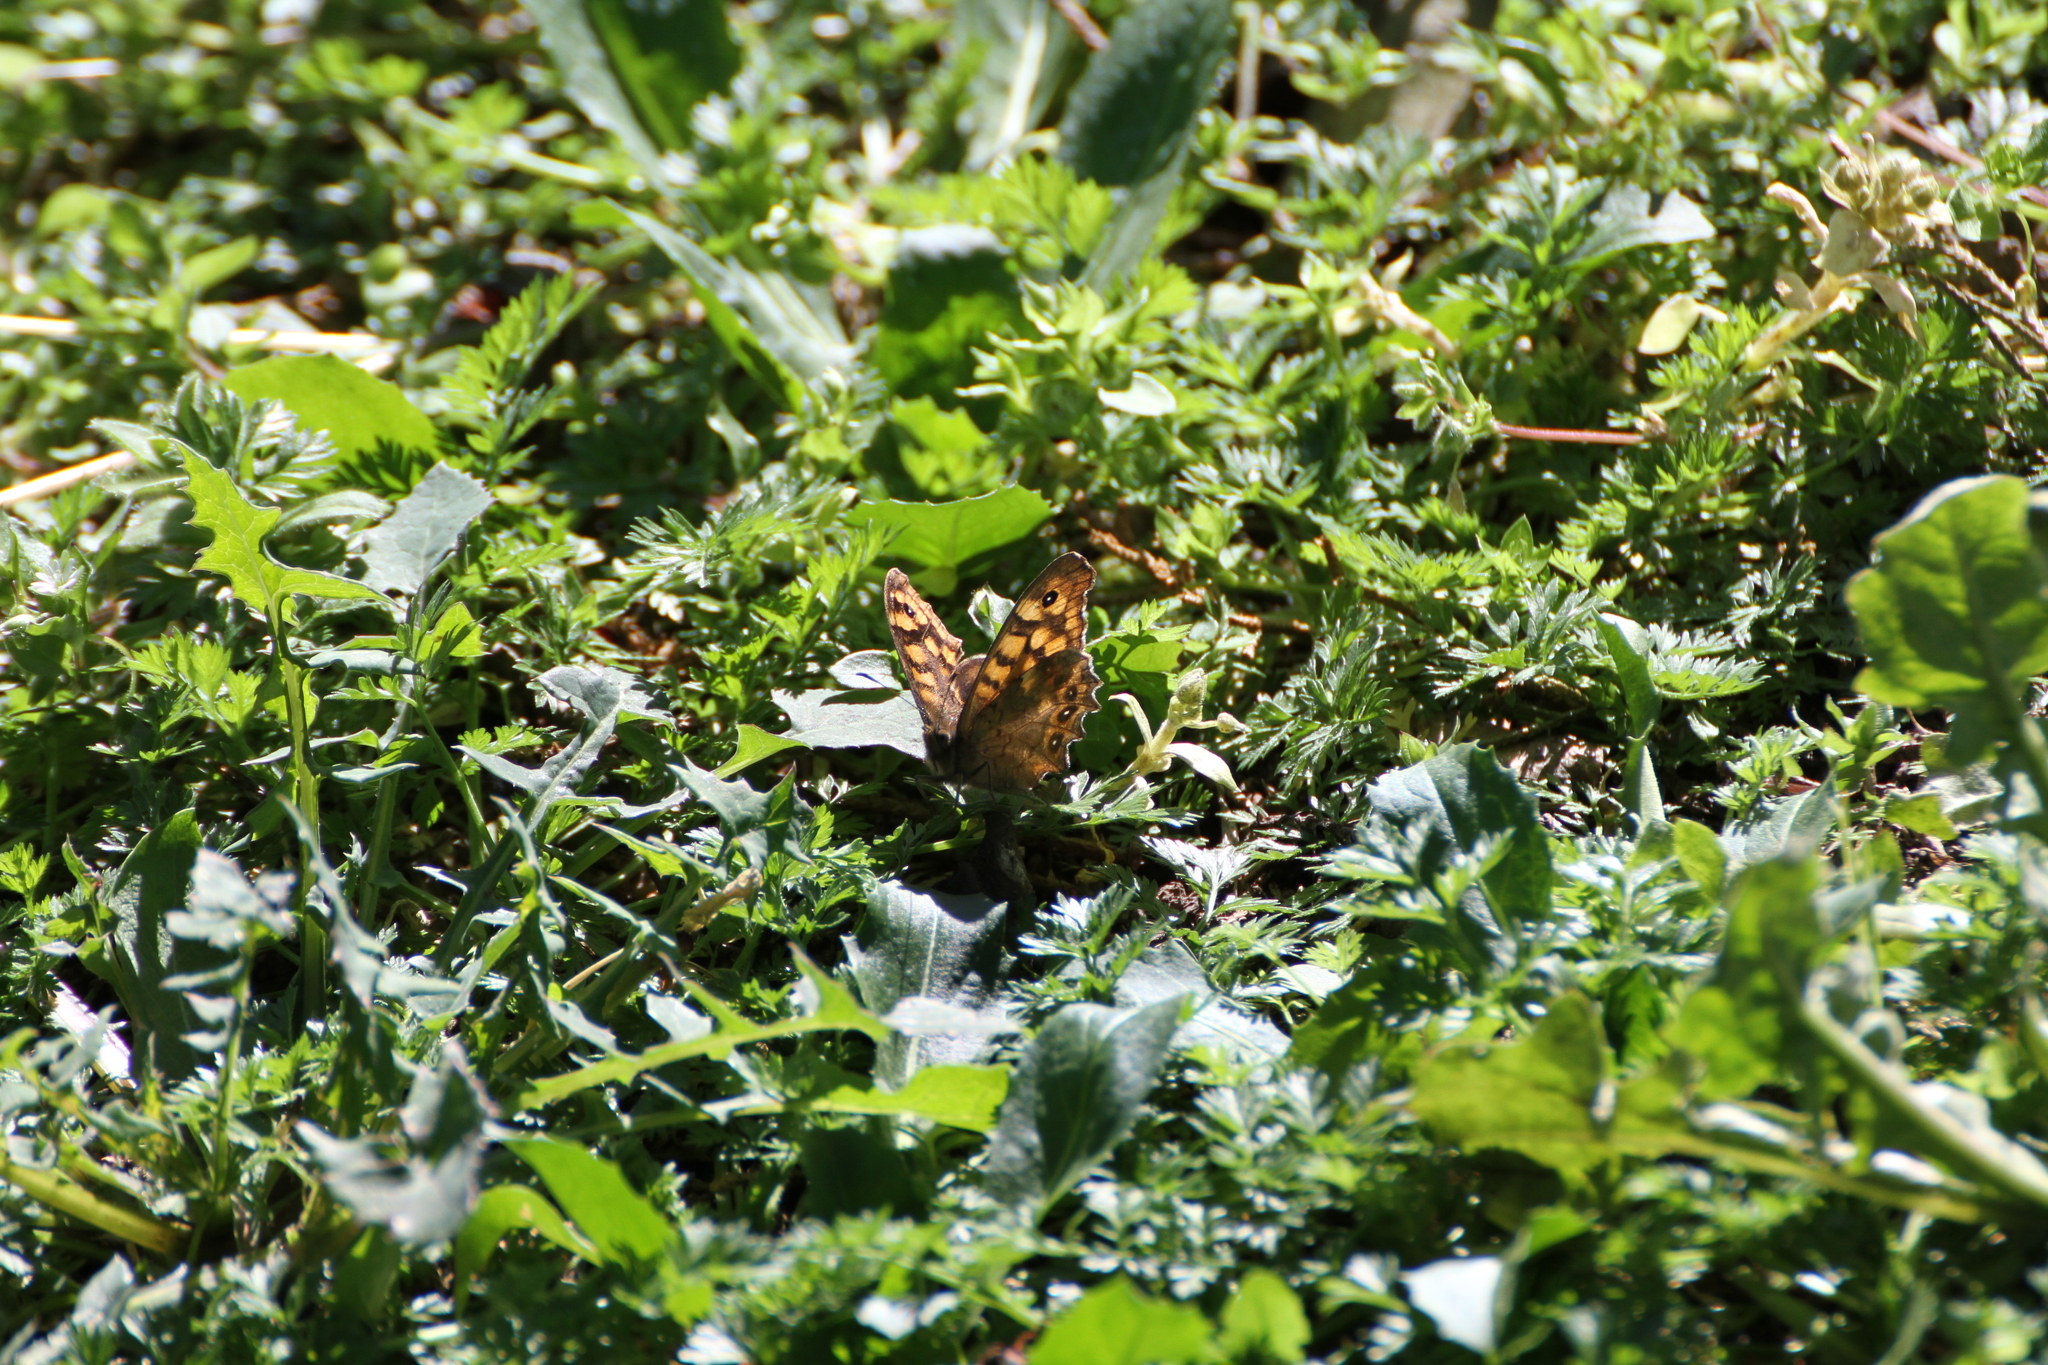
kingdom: Animalia
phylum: Arthropoda
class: Insecta
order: Lepidoptera
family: Nymphalidae
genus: Pararge
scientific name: Pararge aegeria
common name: Speckled wood
